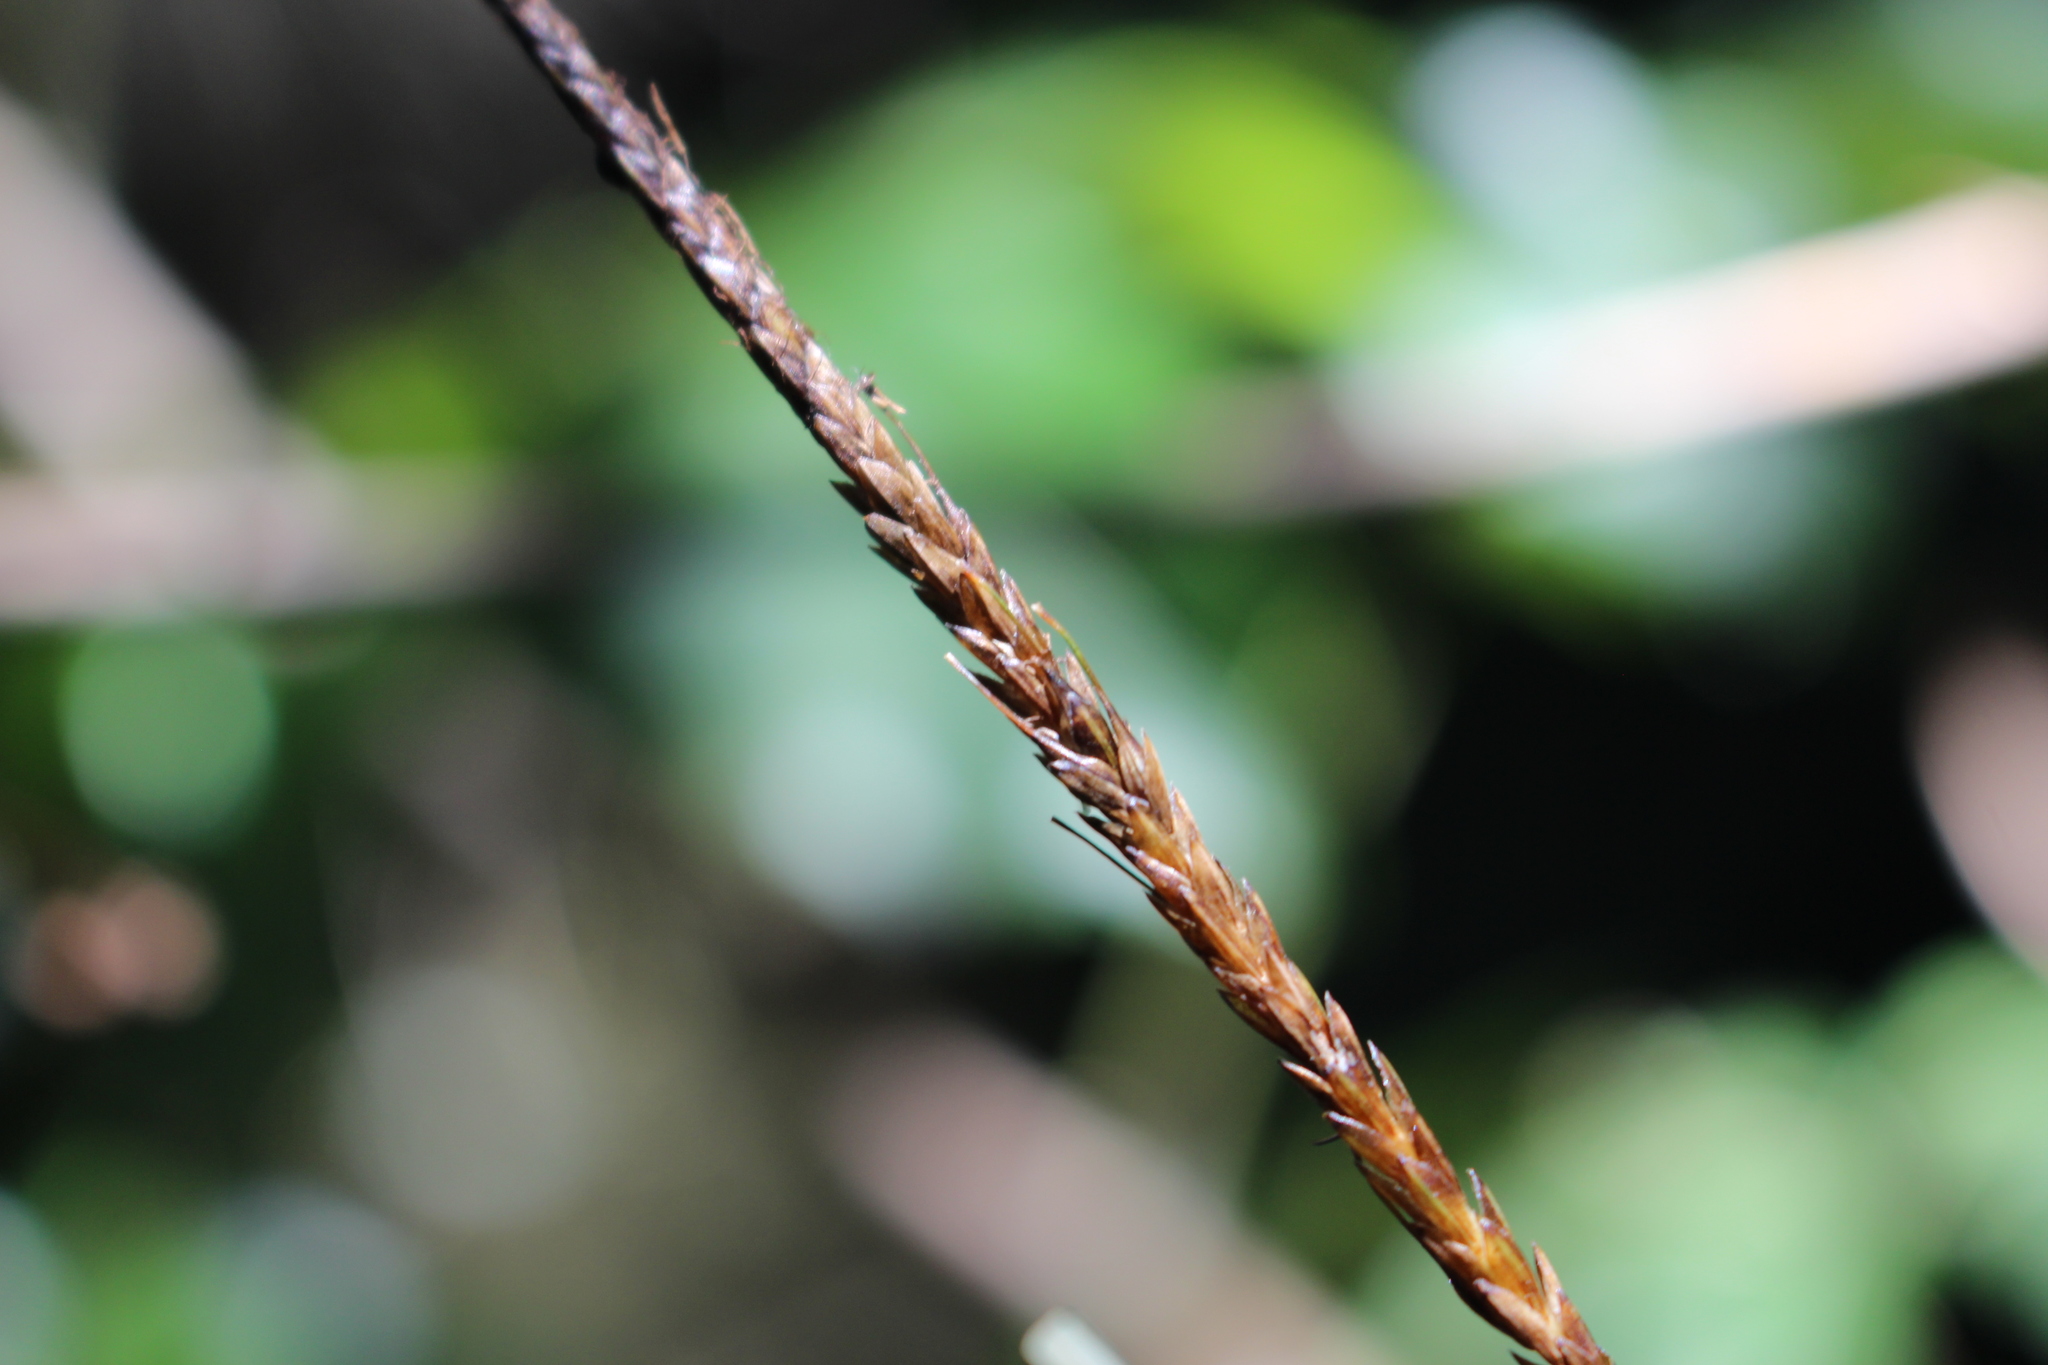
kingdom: Plantae
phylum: Tracheophyta
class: Liliopsida
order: Poales
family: Cyperaceae
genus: Carex
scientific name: Carex uncinata
